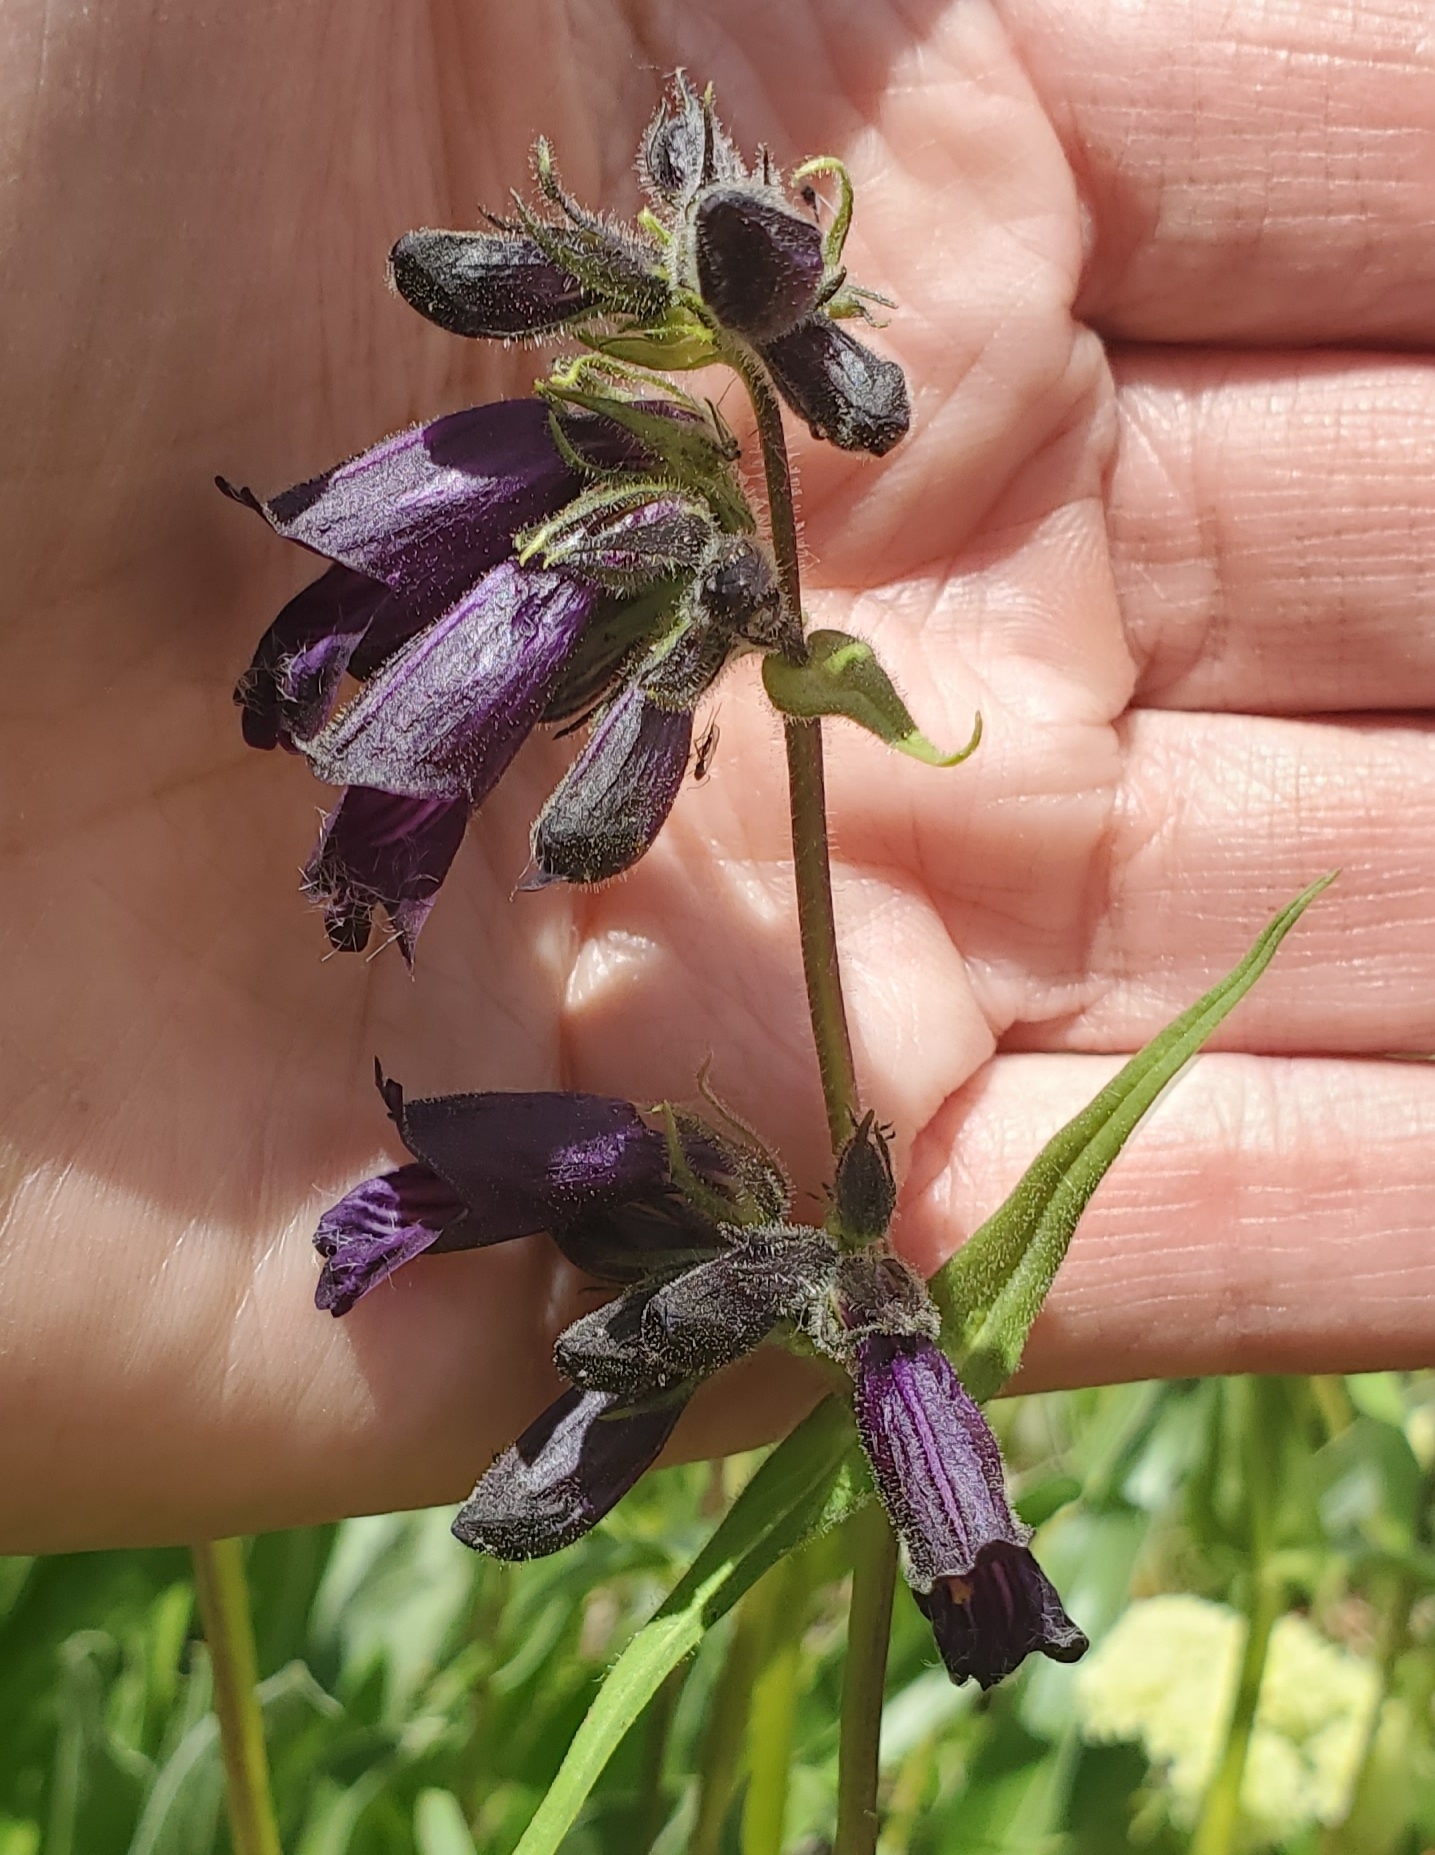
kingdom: Plantae
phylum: Tracheophyta
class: Magnoliopsida
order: Lamiales
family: Plantaginaceae
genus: Penstemon
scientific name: Penstemon whippleanus
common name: Whipple's penstemon
